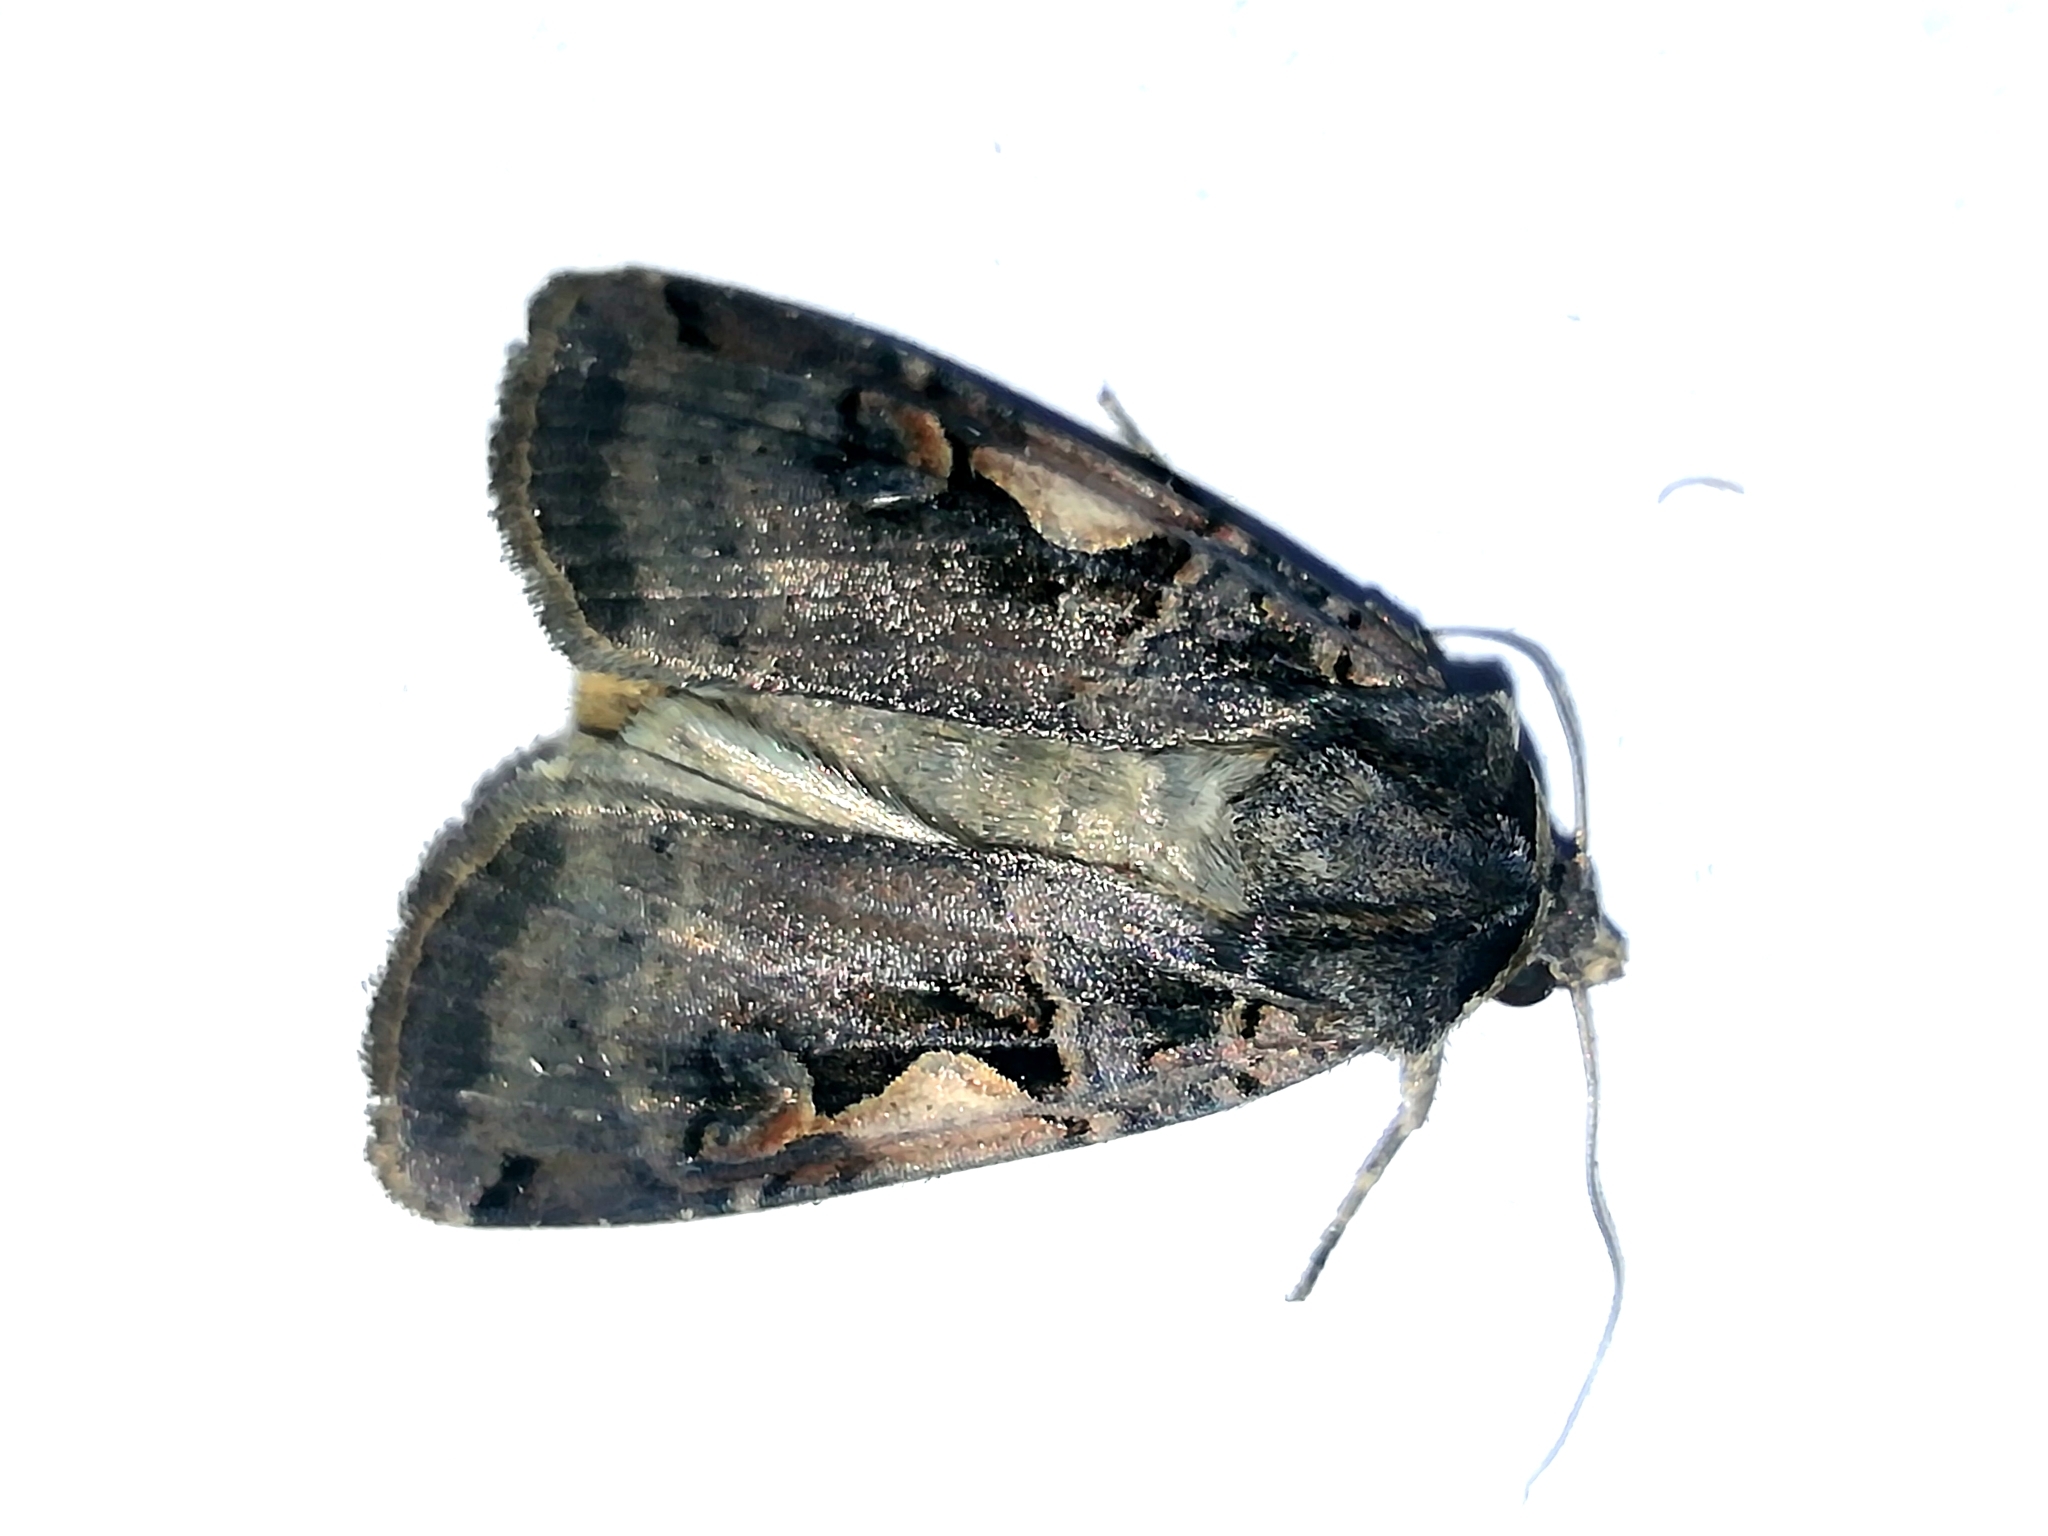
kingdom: Animalia
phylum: Arthropoda
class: Insecta
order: Lepidoptera
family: Noctuidae
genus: Xestia
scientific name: Xestia c-nigrum
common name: Setaceous hebrew character
